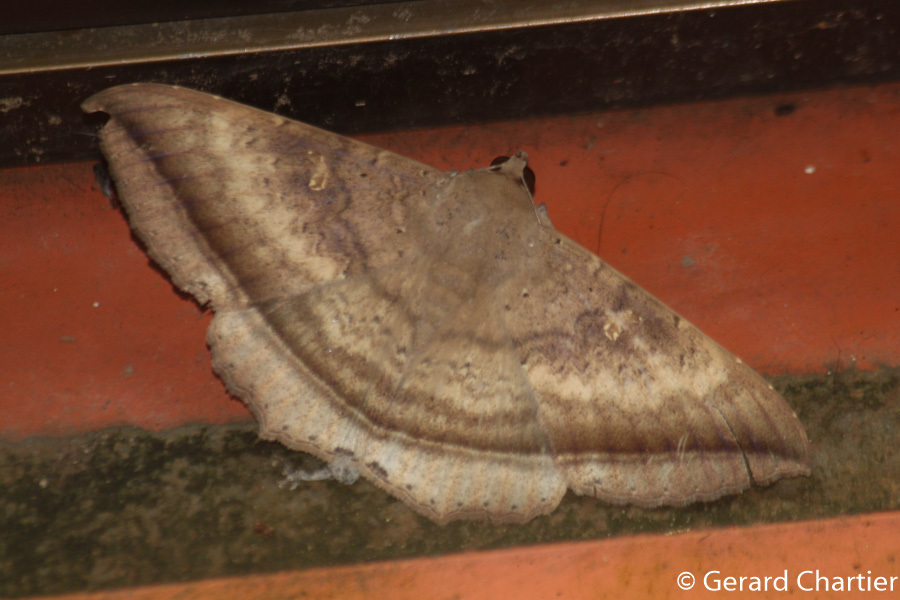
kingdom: Animalia
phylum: Arthropoda
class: Insecta
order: Lepidoptera
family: Erebidae
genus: Hulodes
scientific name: Hulodes caranea
